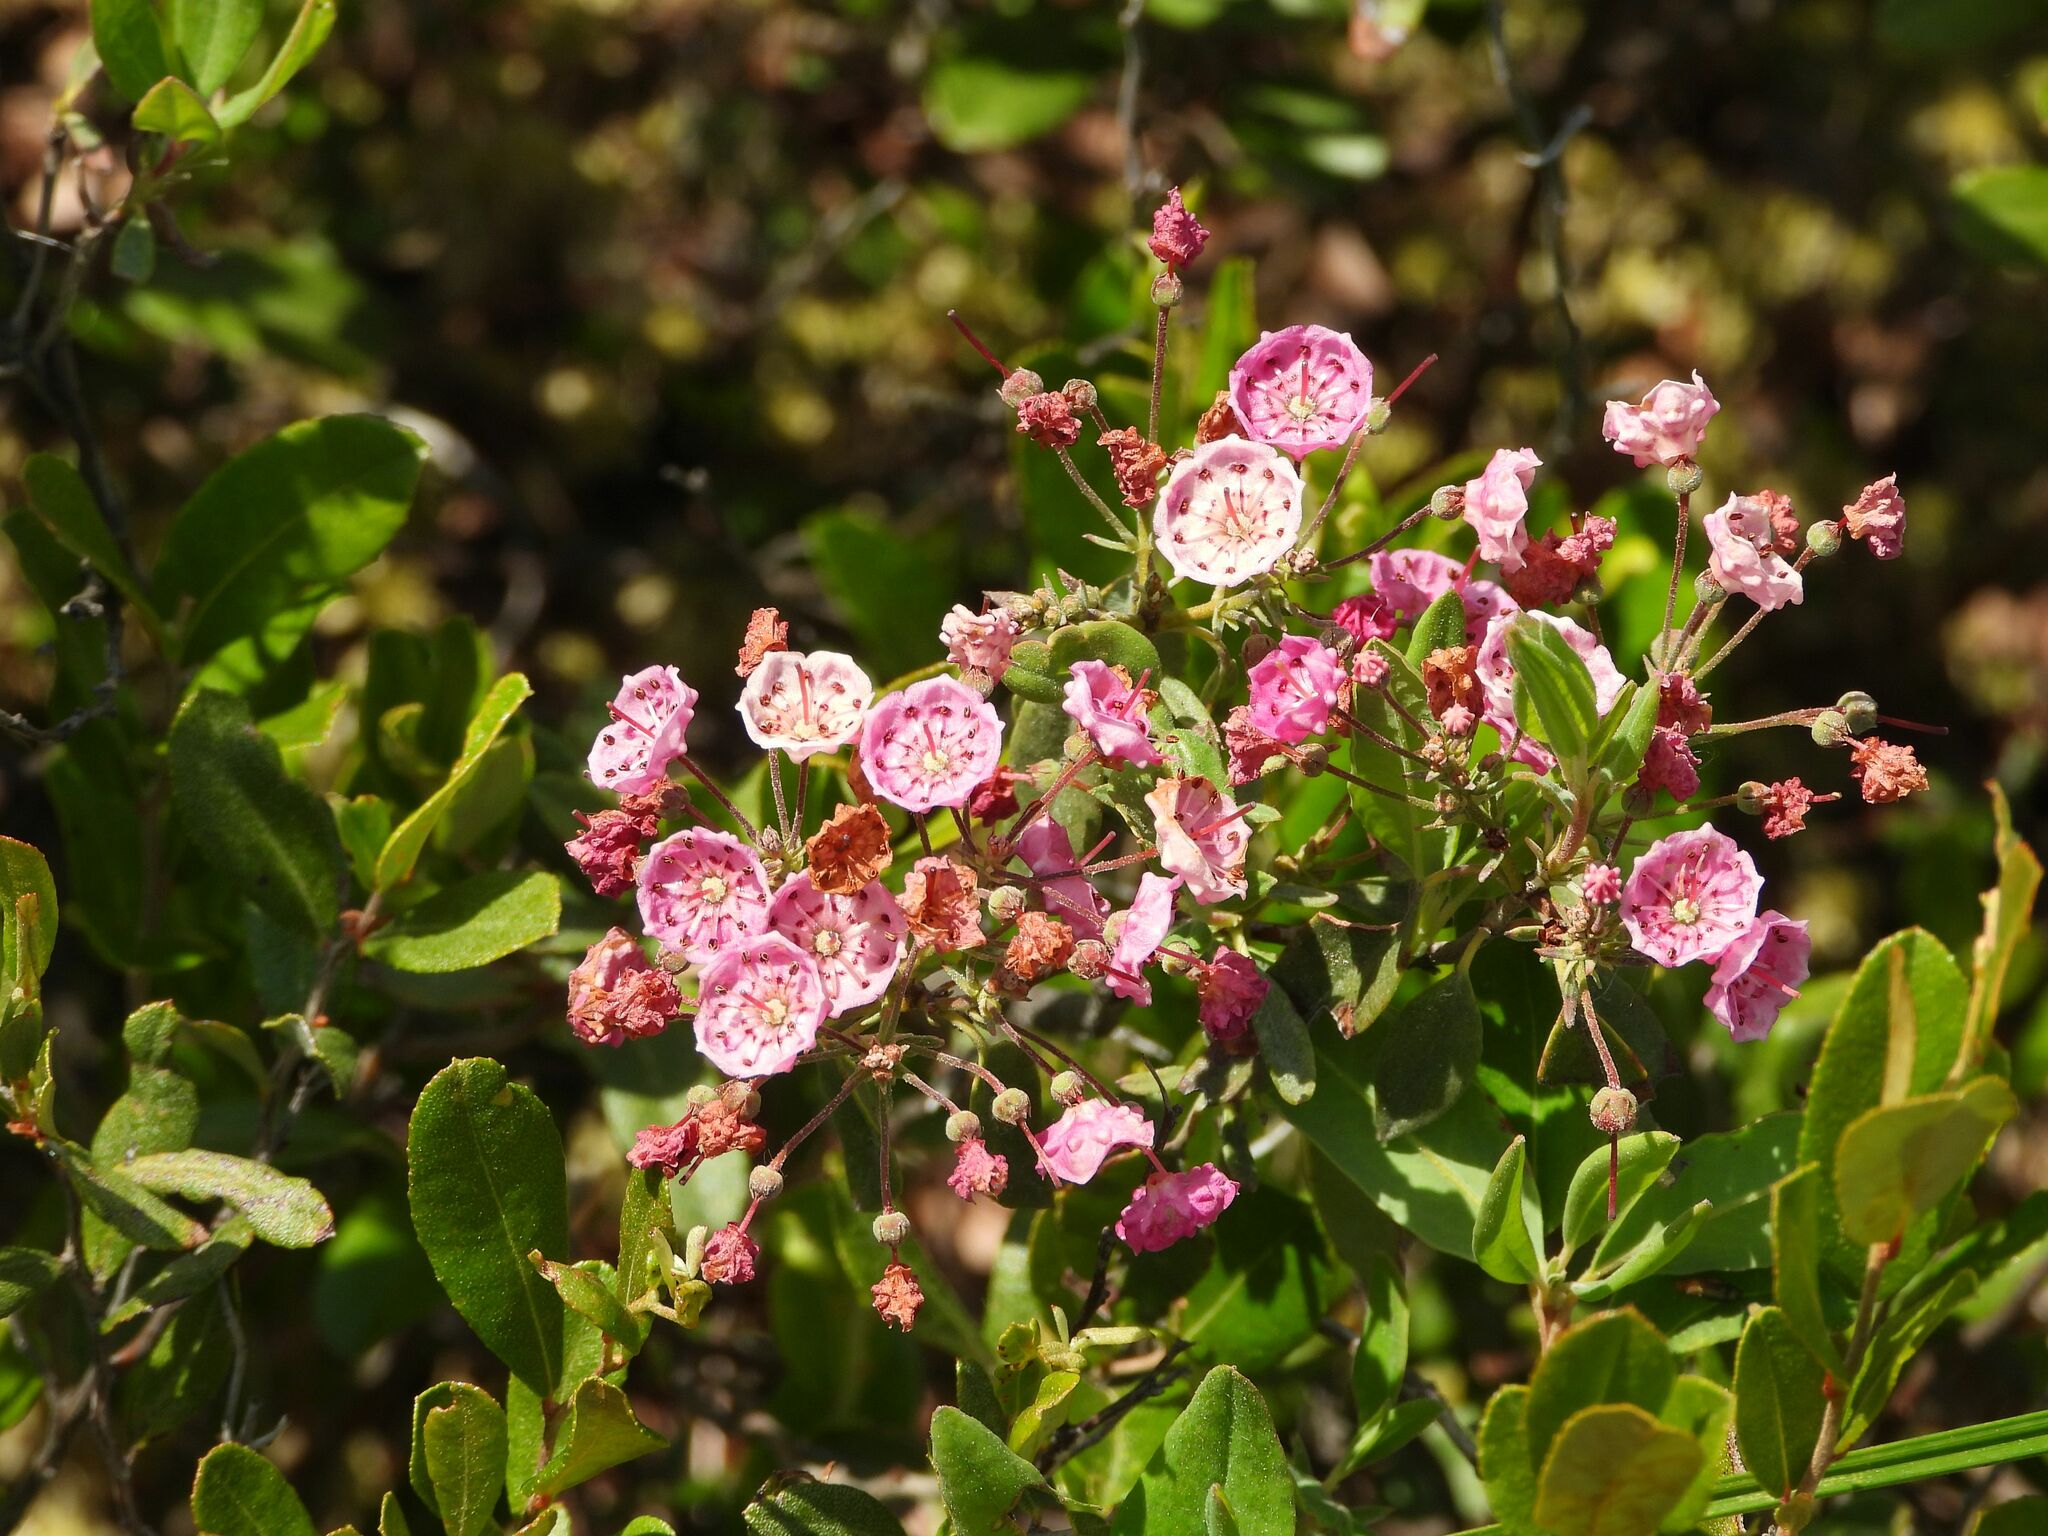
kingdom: Plantae
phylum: Tracheophyta
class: Magnoliopsida
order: Ericales
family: Ericaceae
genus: Kalmia
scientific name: Kalmia polifolia
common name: Bog-laurel
